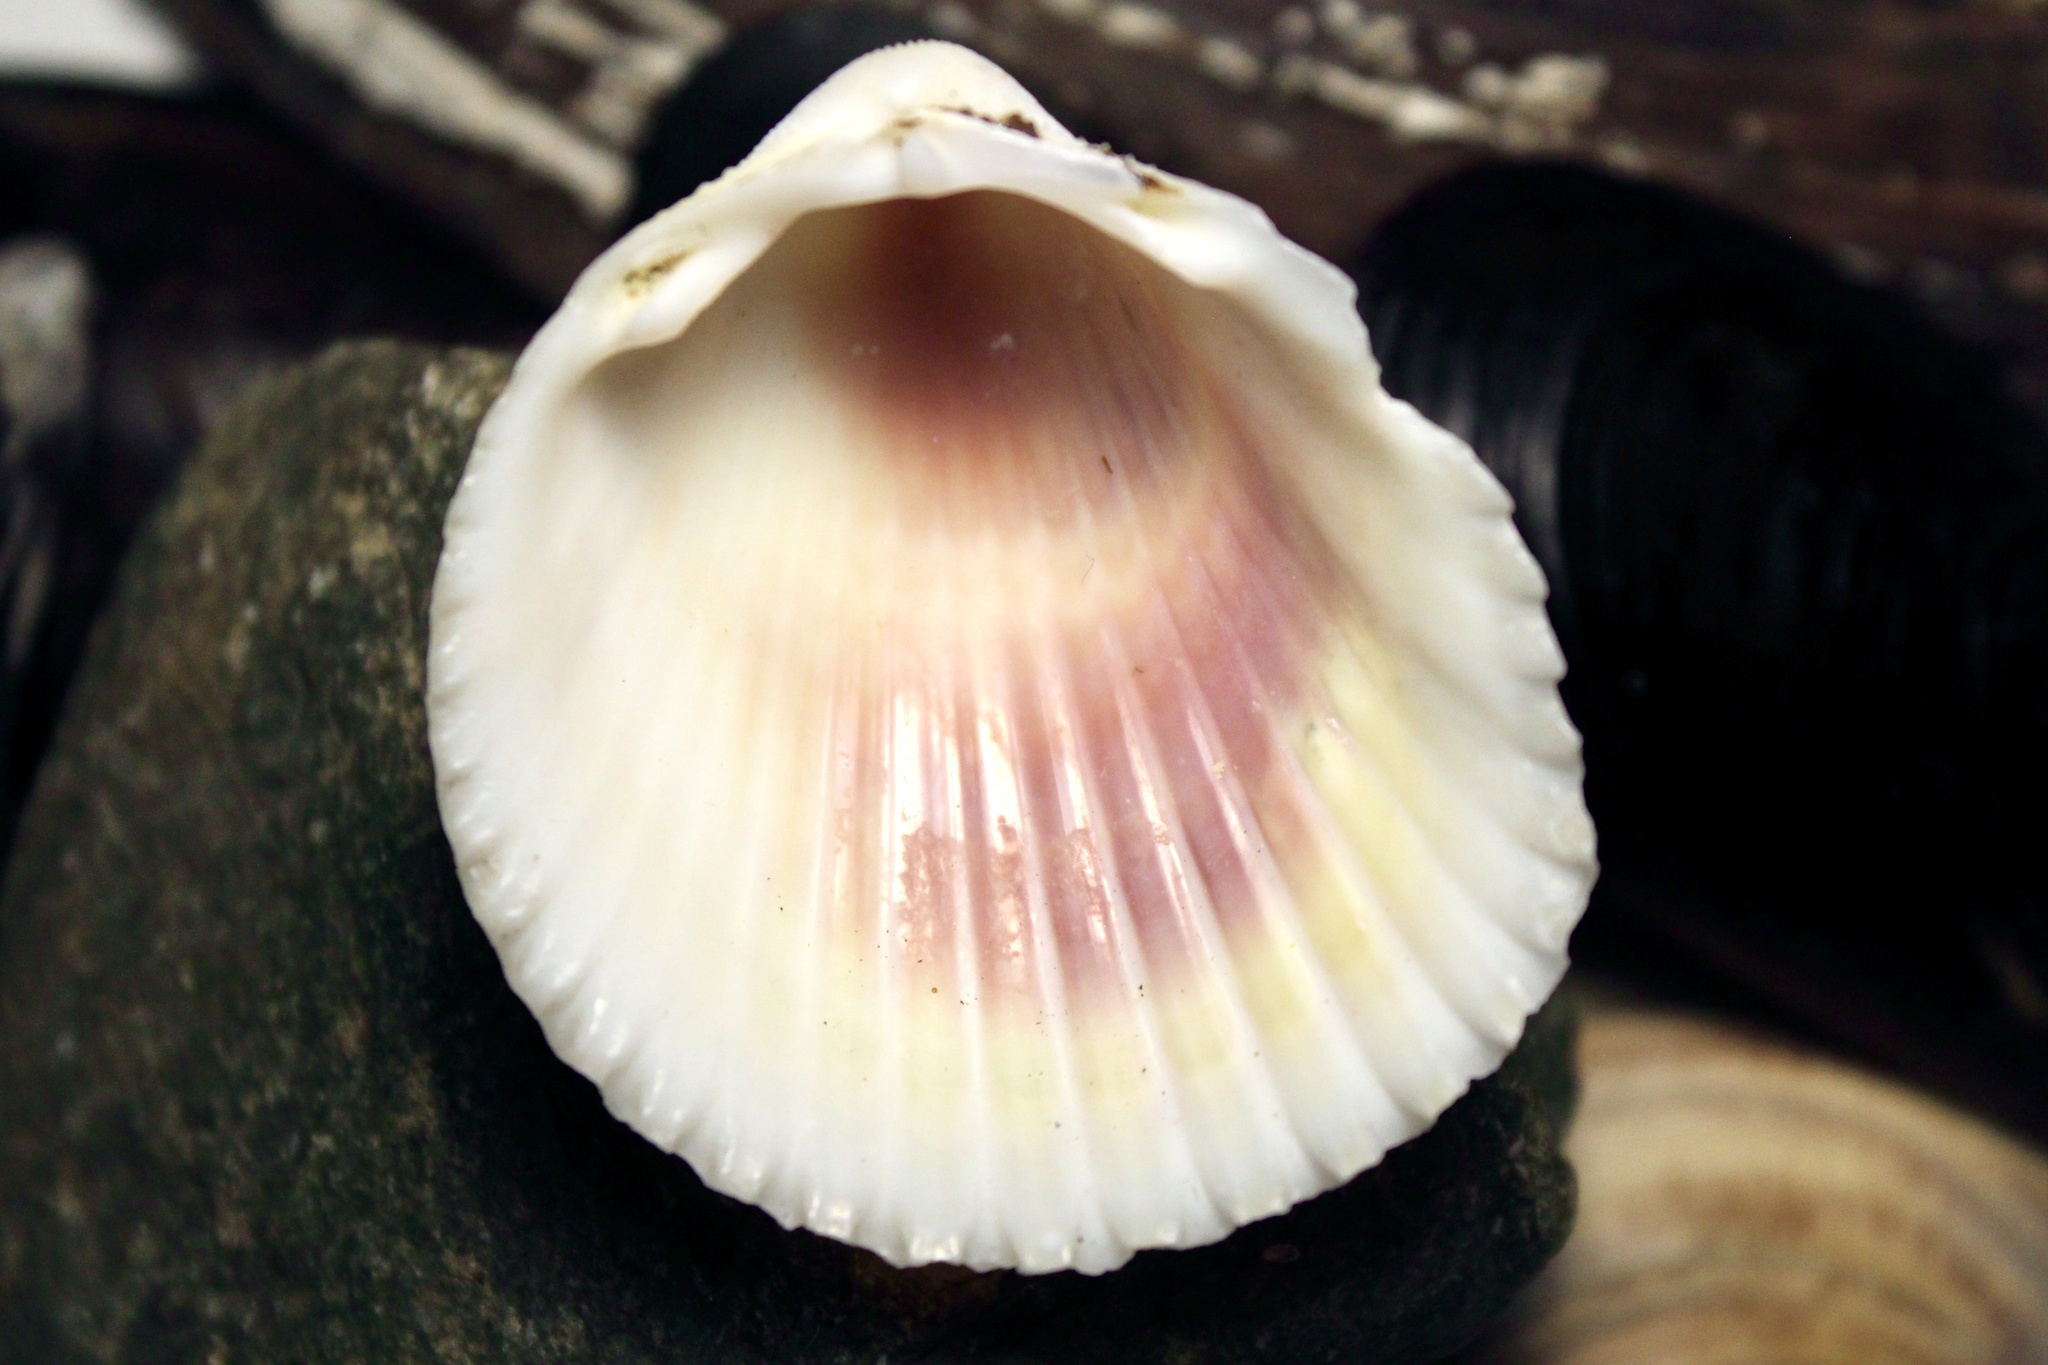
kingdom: Animalia
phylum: Mollusca
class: Bivalvia
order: Cardiida
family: Cardiidae
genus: Trachycardium
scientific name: Trachycardium egmontianum
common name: Florida pricklycockle
